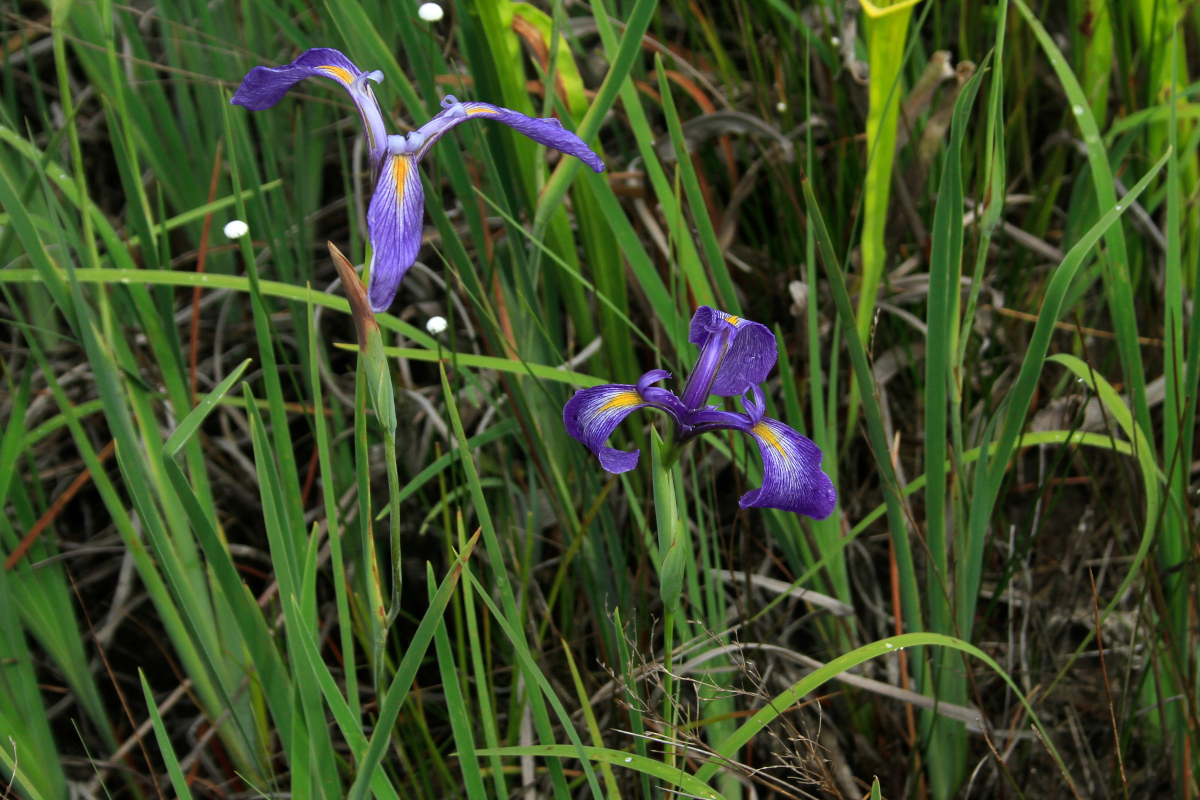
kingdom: Plantae
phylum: Tracheophyta
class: Liliopsida
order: Asparagales
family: Iridaceae
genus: Iris
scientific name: Iris tridentata
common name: Savannah iris
